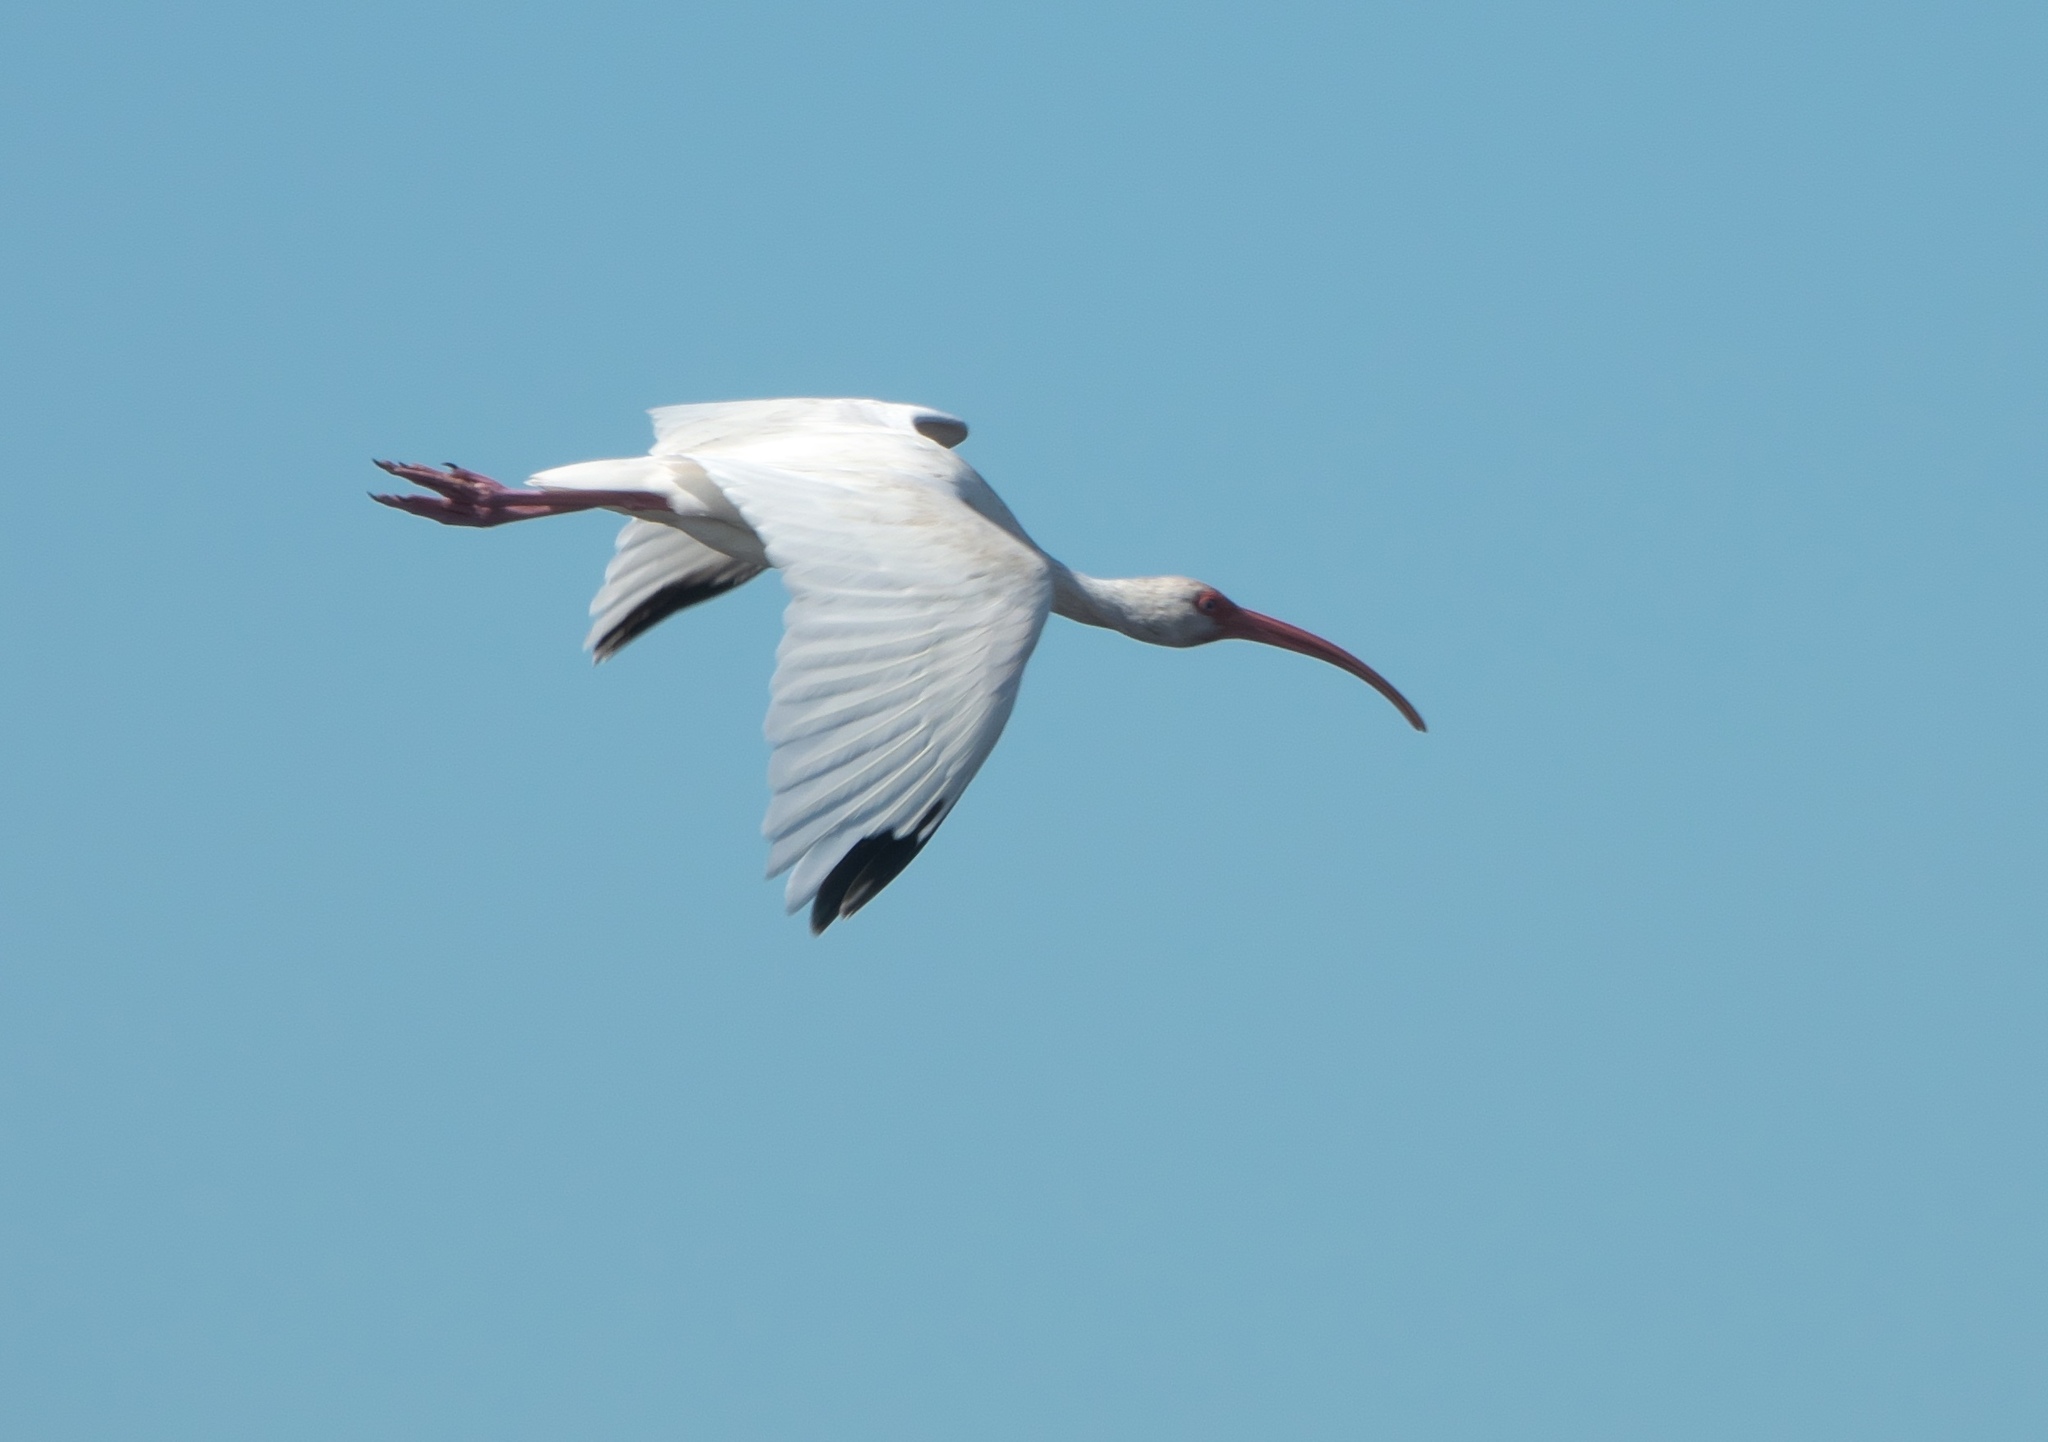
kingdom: Animalia
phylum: Chordata
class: Aves
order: Pelecaniformes
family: Threskiornithidae
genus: Eudocimus
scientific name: Eudocimus albus
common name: White ibis
